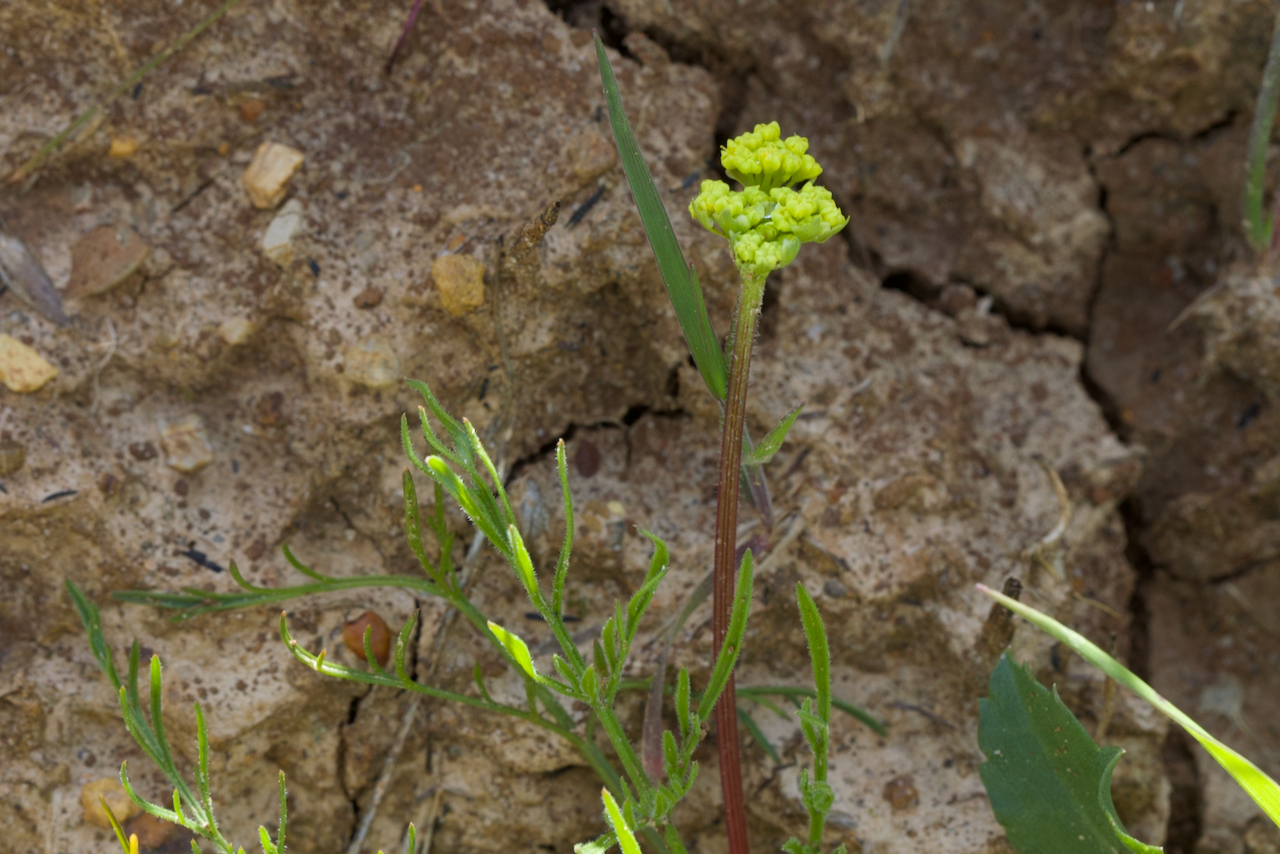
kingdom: Plantae
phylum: Tracheophyta
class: Magnoliopsida
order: Apiales
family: Apiaceae
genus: Lomatium
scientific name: Lomatium caruifolium
